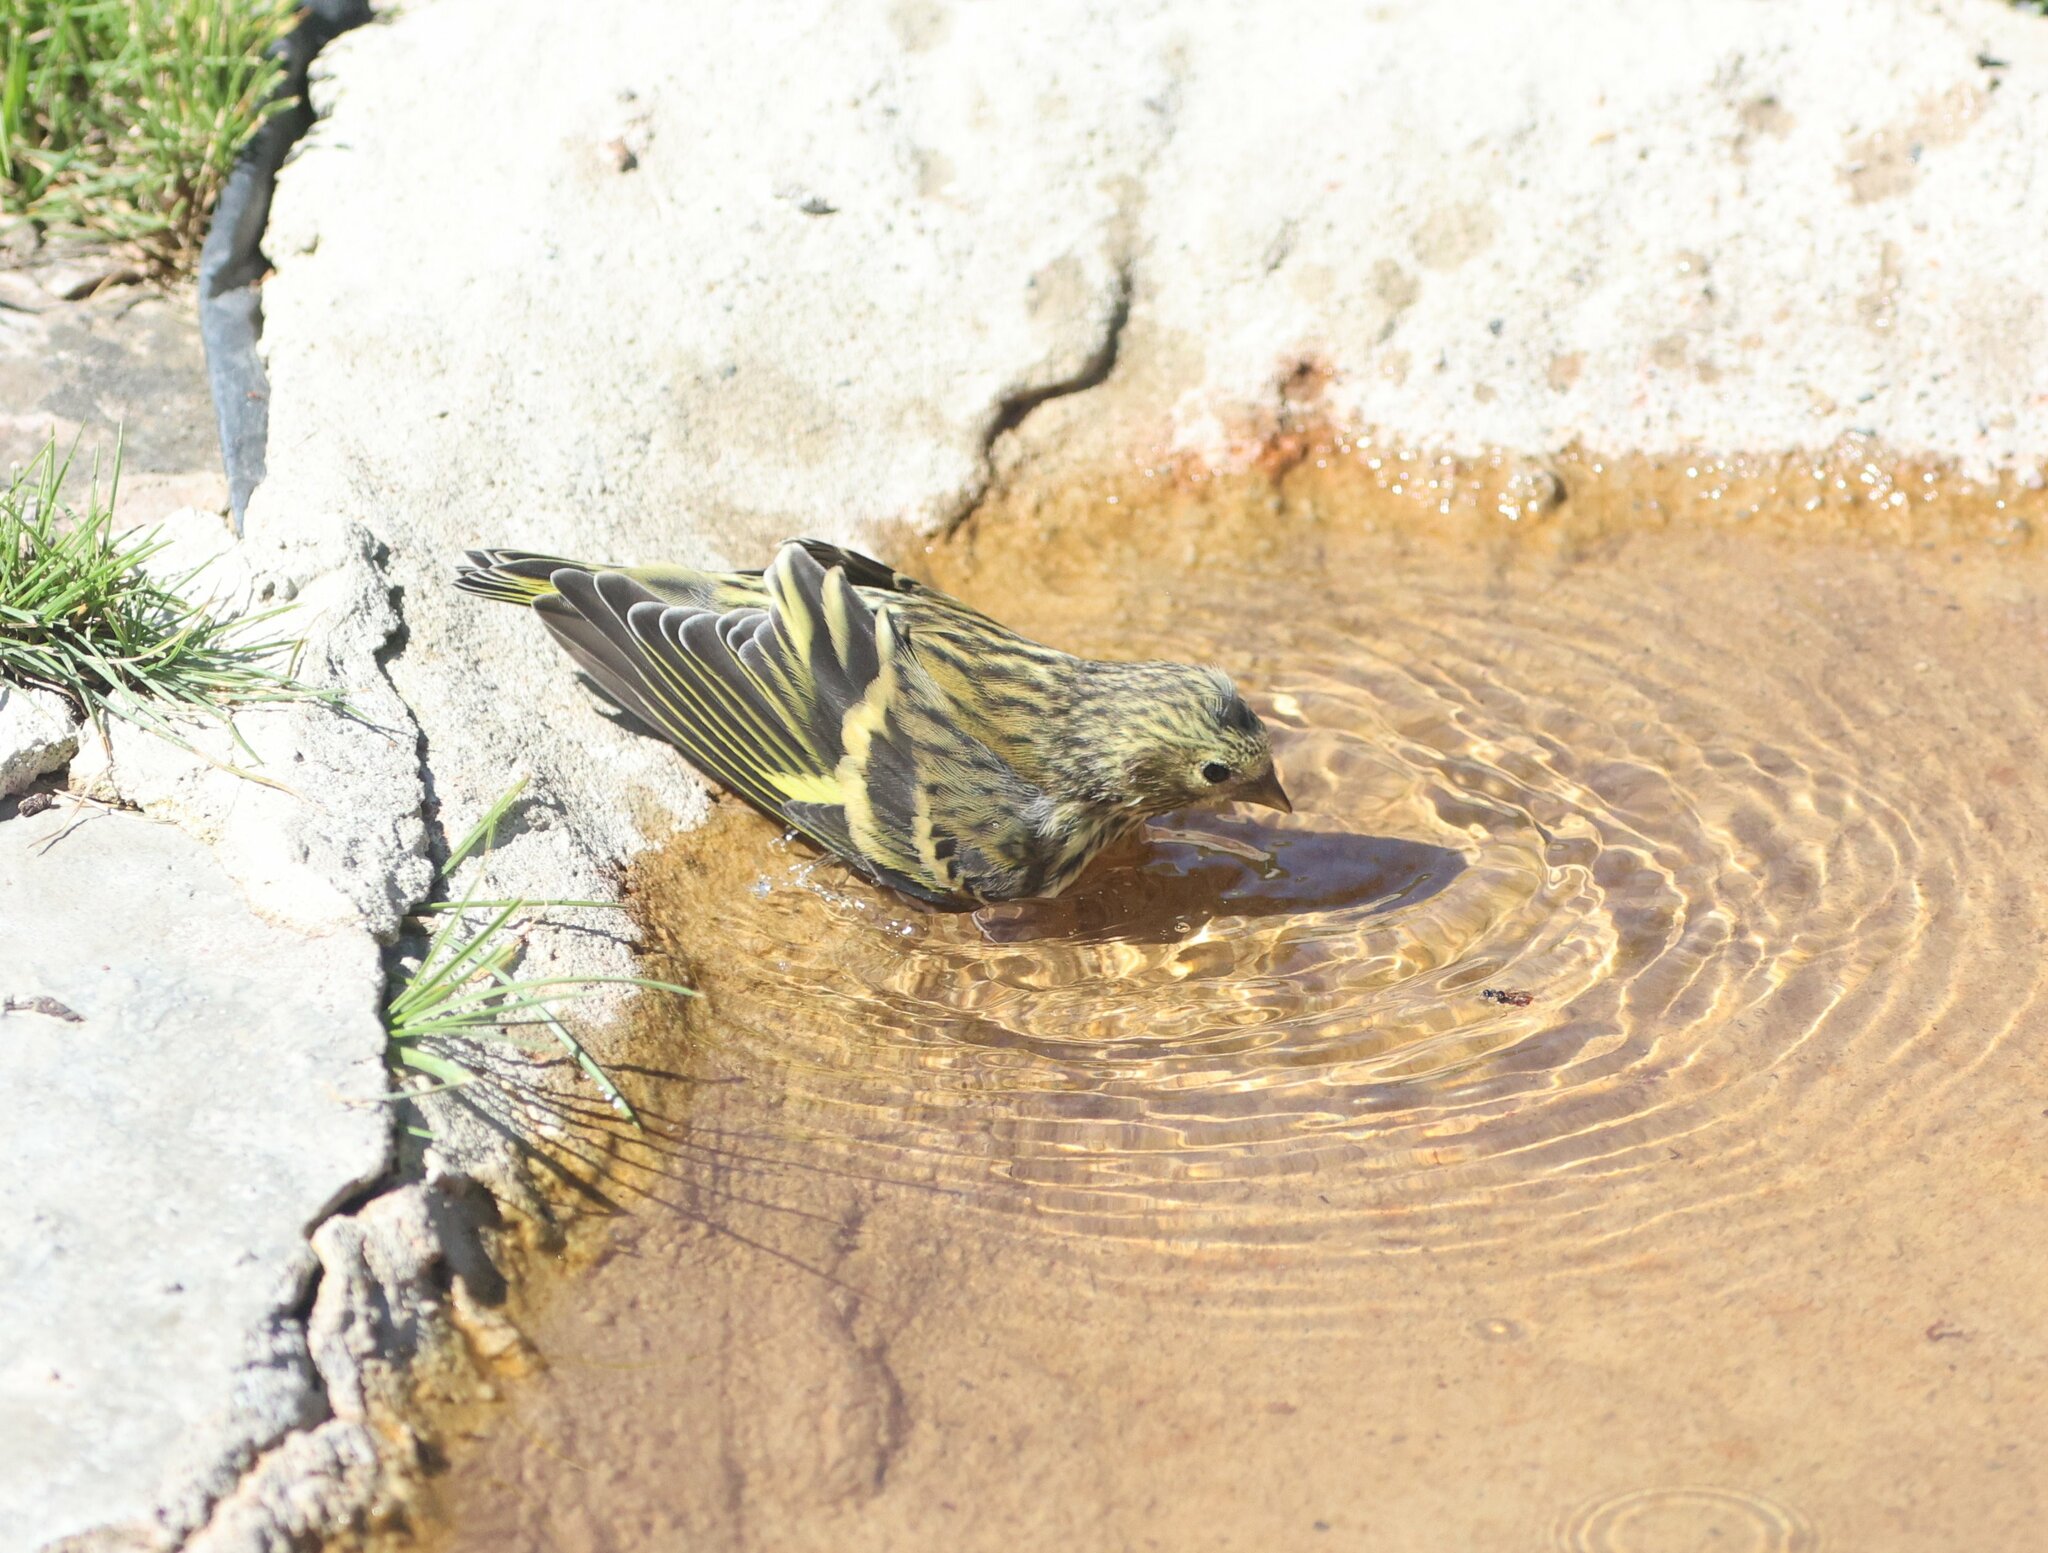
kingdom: Animalia
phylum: Chordata
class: Aves
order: Passeriformes
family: Fringillidae
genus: Spinus
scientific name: Spinus spinus
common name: Eurasian siskin
